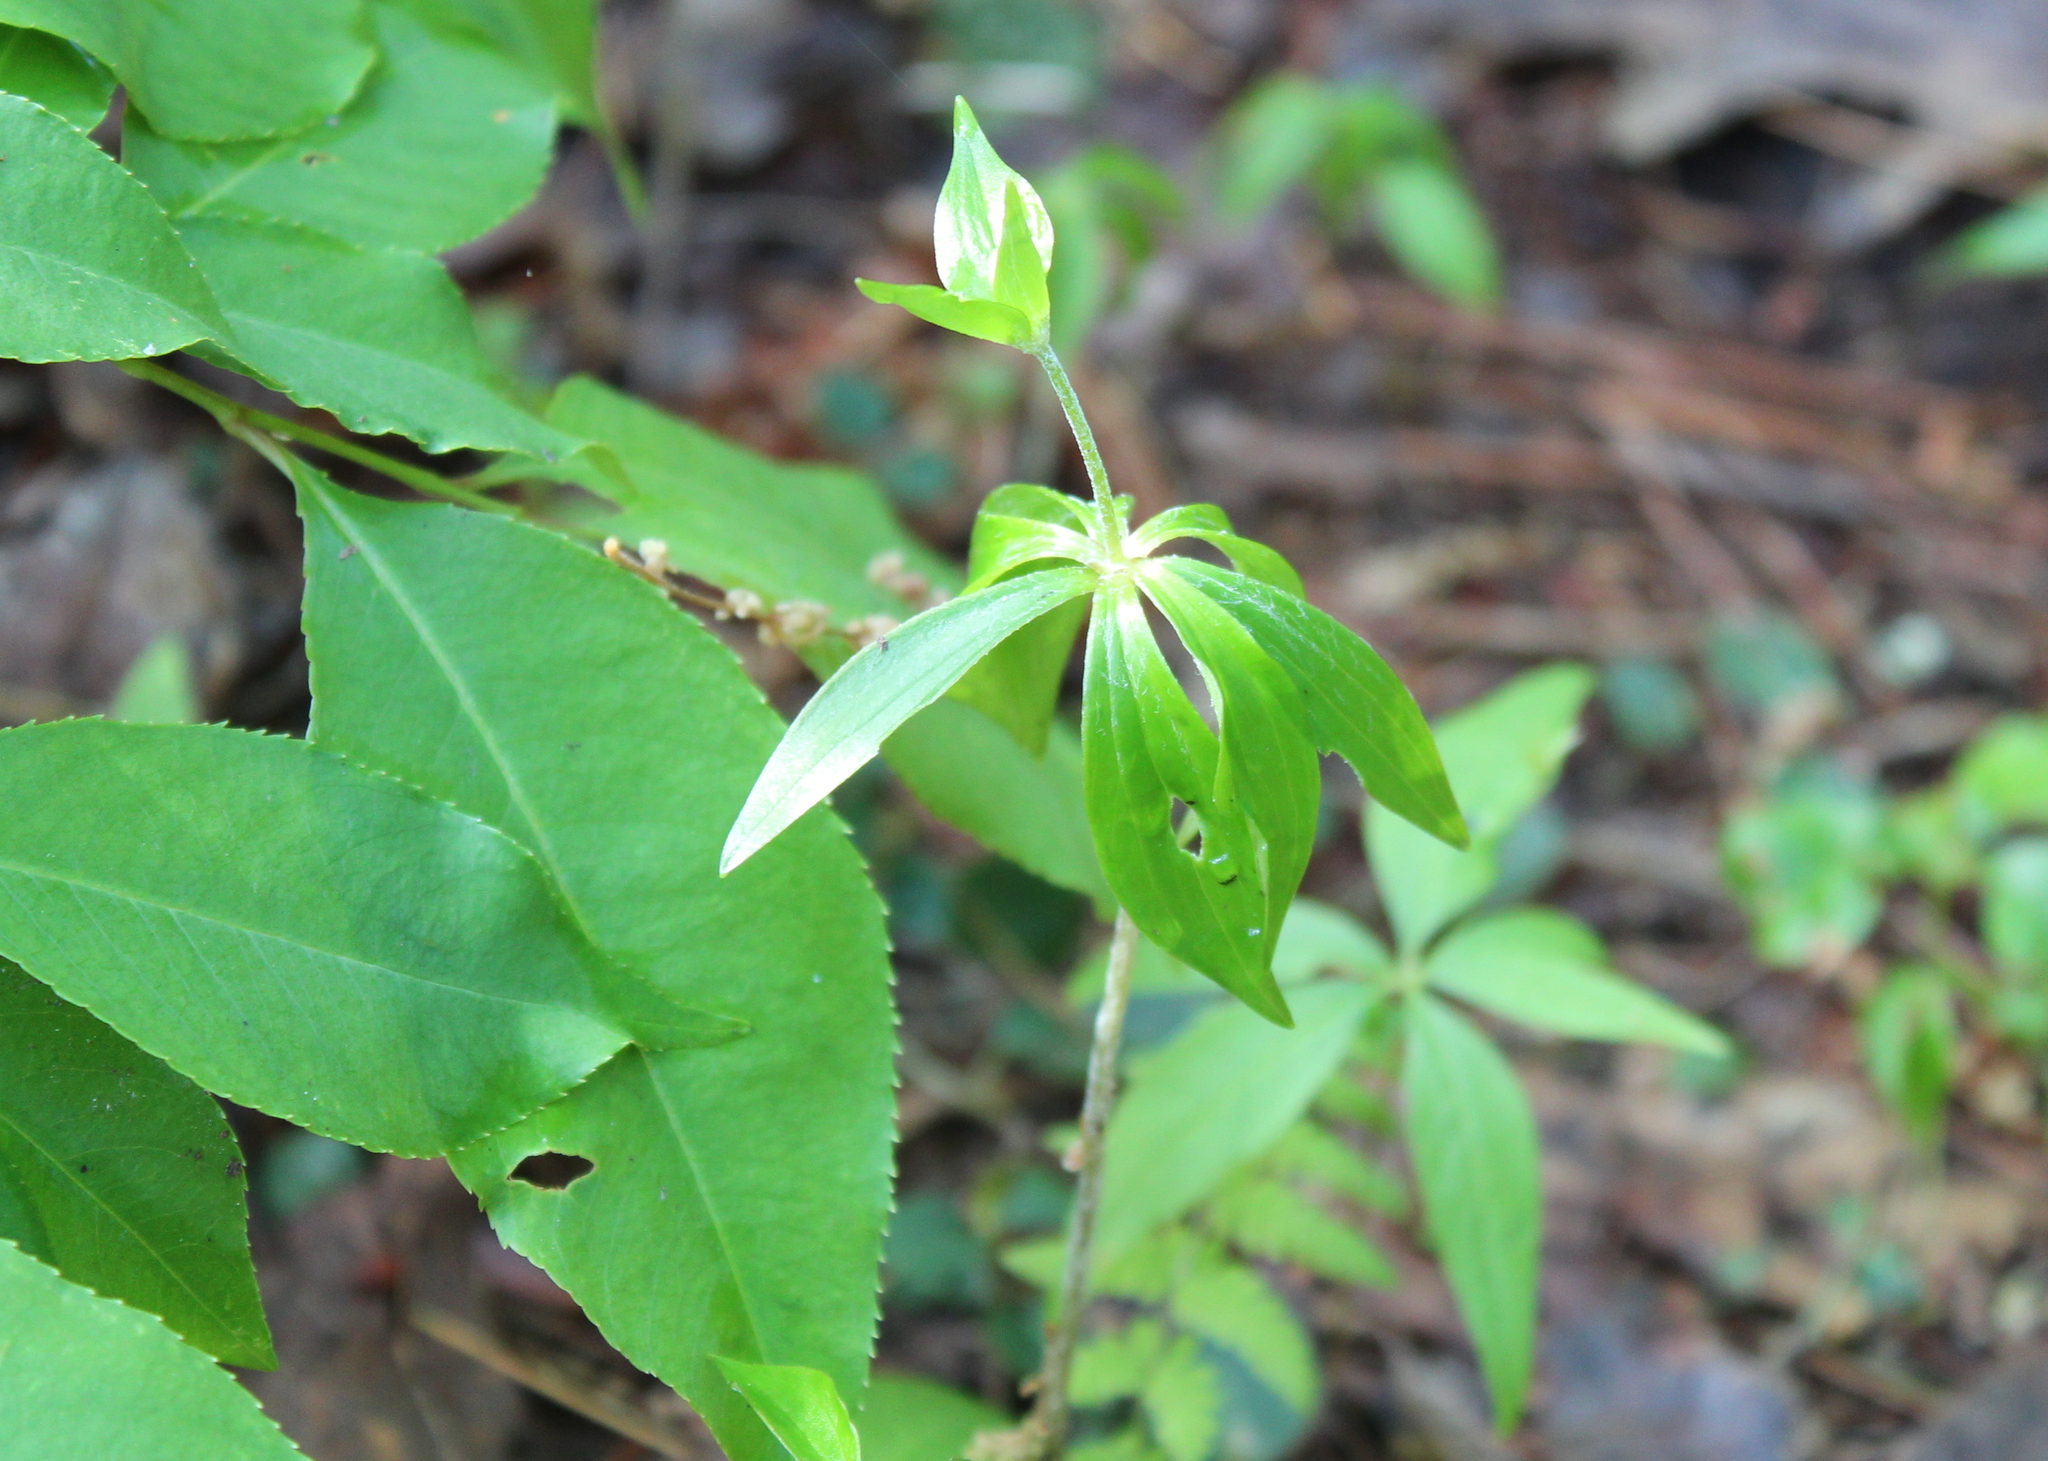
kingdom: Plantae
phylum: Tracheophyta
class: Liliopsida
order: Liliales
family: Liliaceae
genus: Medeola
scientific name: Medeola virginiana
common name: Indian cucumber-root
